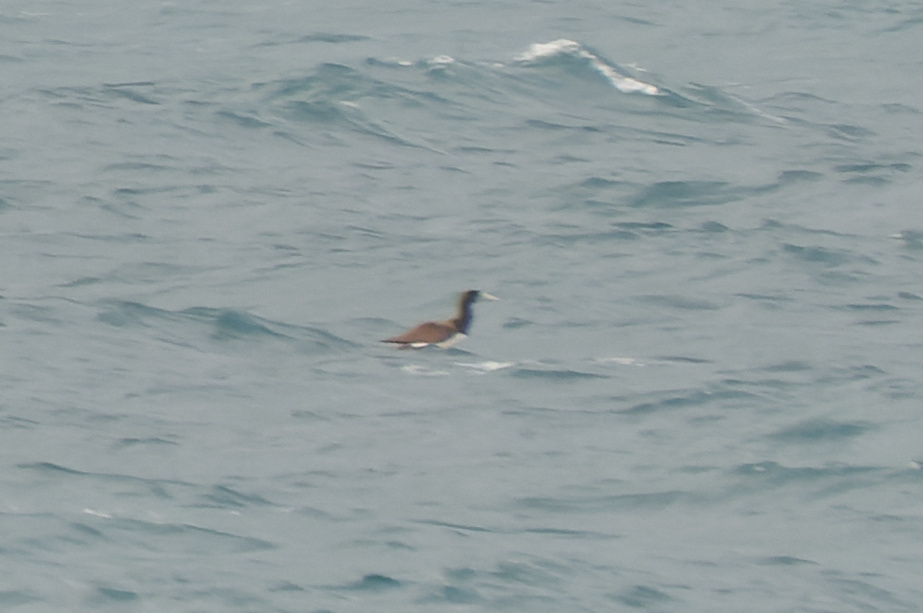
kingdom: Animalia
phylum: Chordata
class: Aves
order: Suliformes
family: Sulidae
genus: Sula
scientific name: Sula leucogaster
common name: Brown booby
